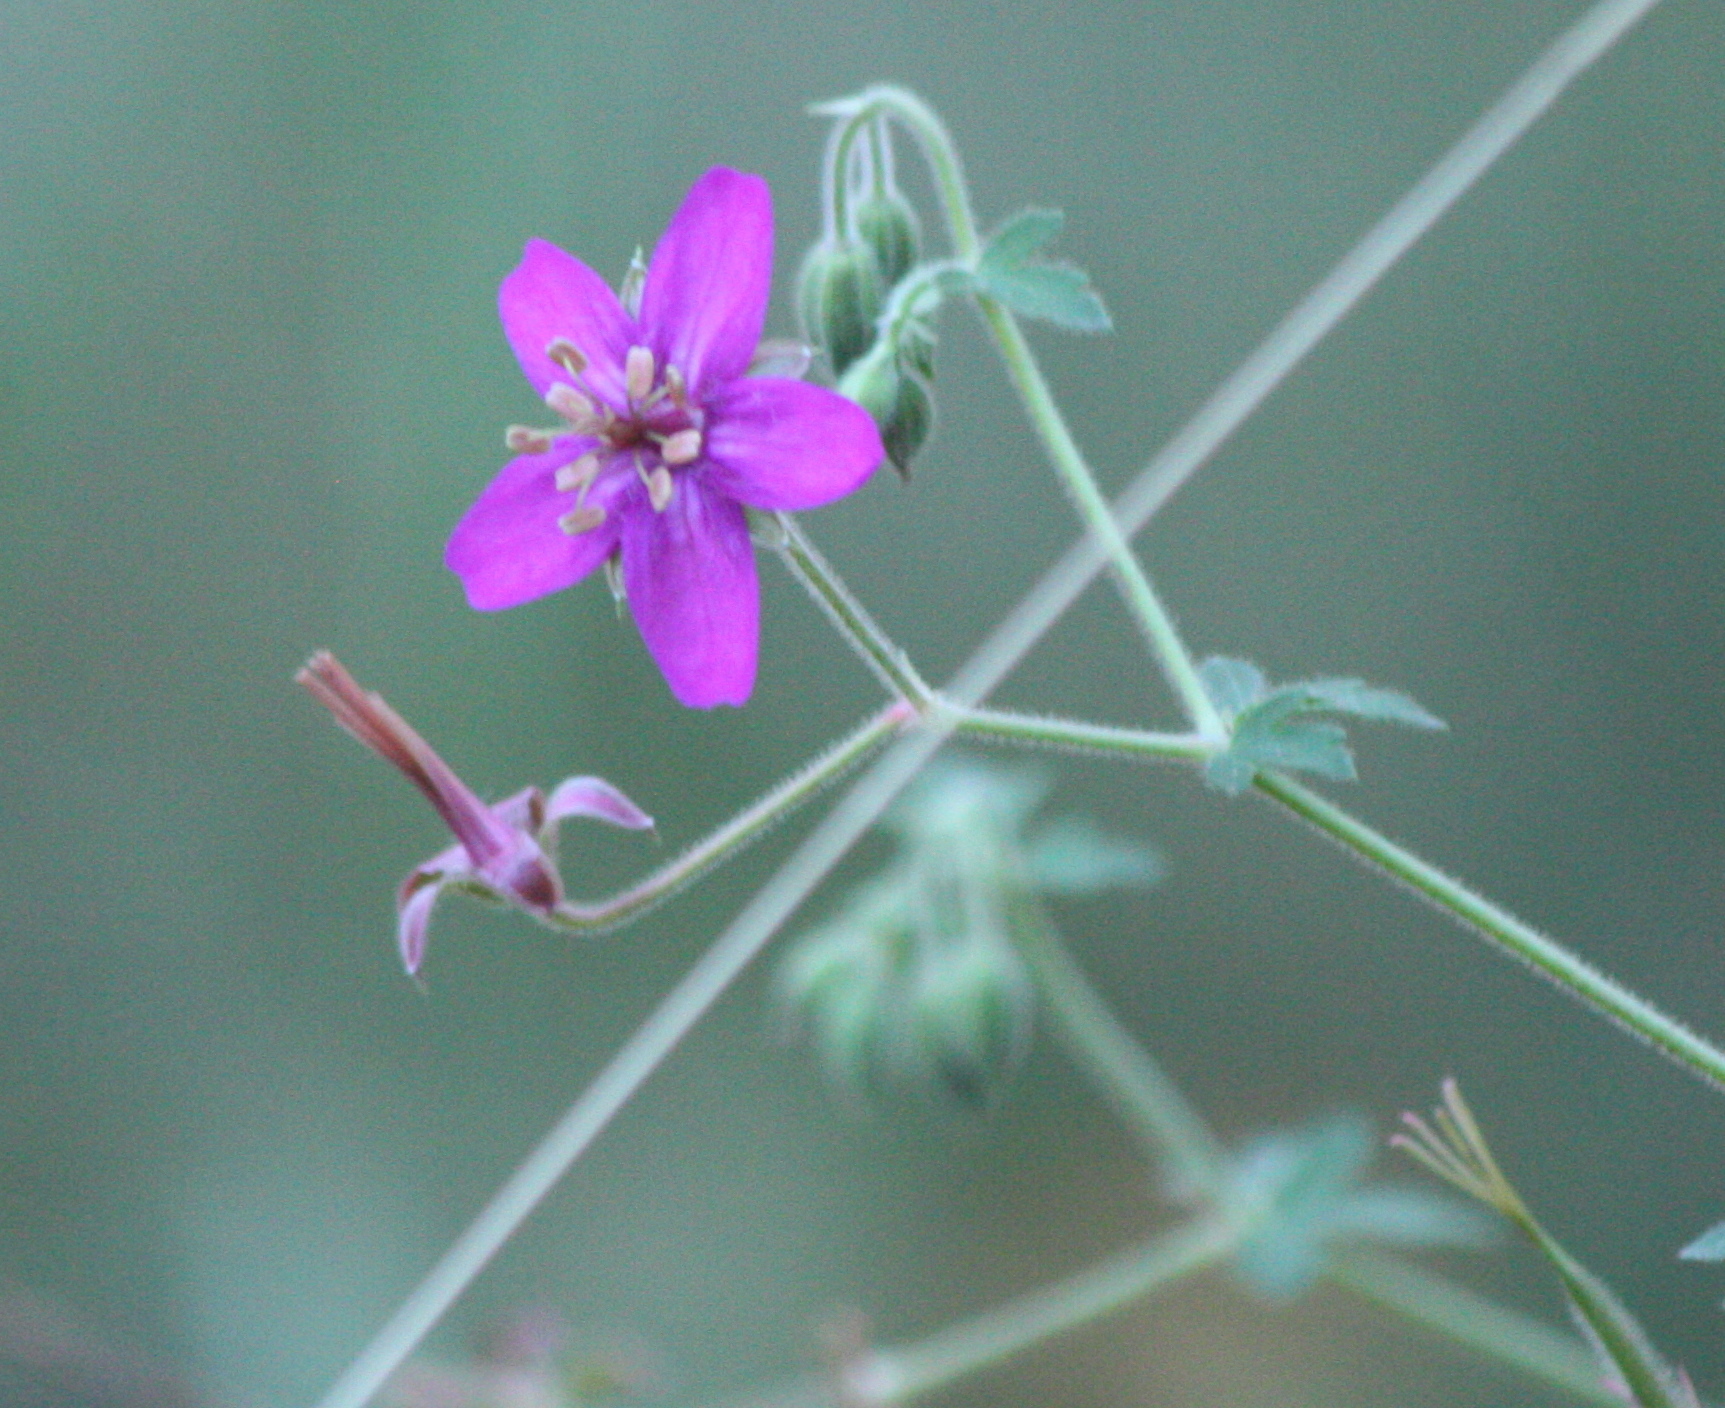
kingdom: Plantae
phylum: Tracheophyta
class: Magnoliopsida
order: Geraniales
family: Geraniaceae
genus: Geranium
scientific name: Geranium caespitosum
